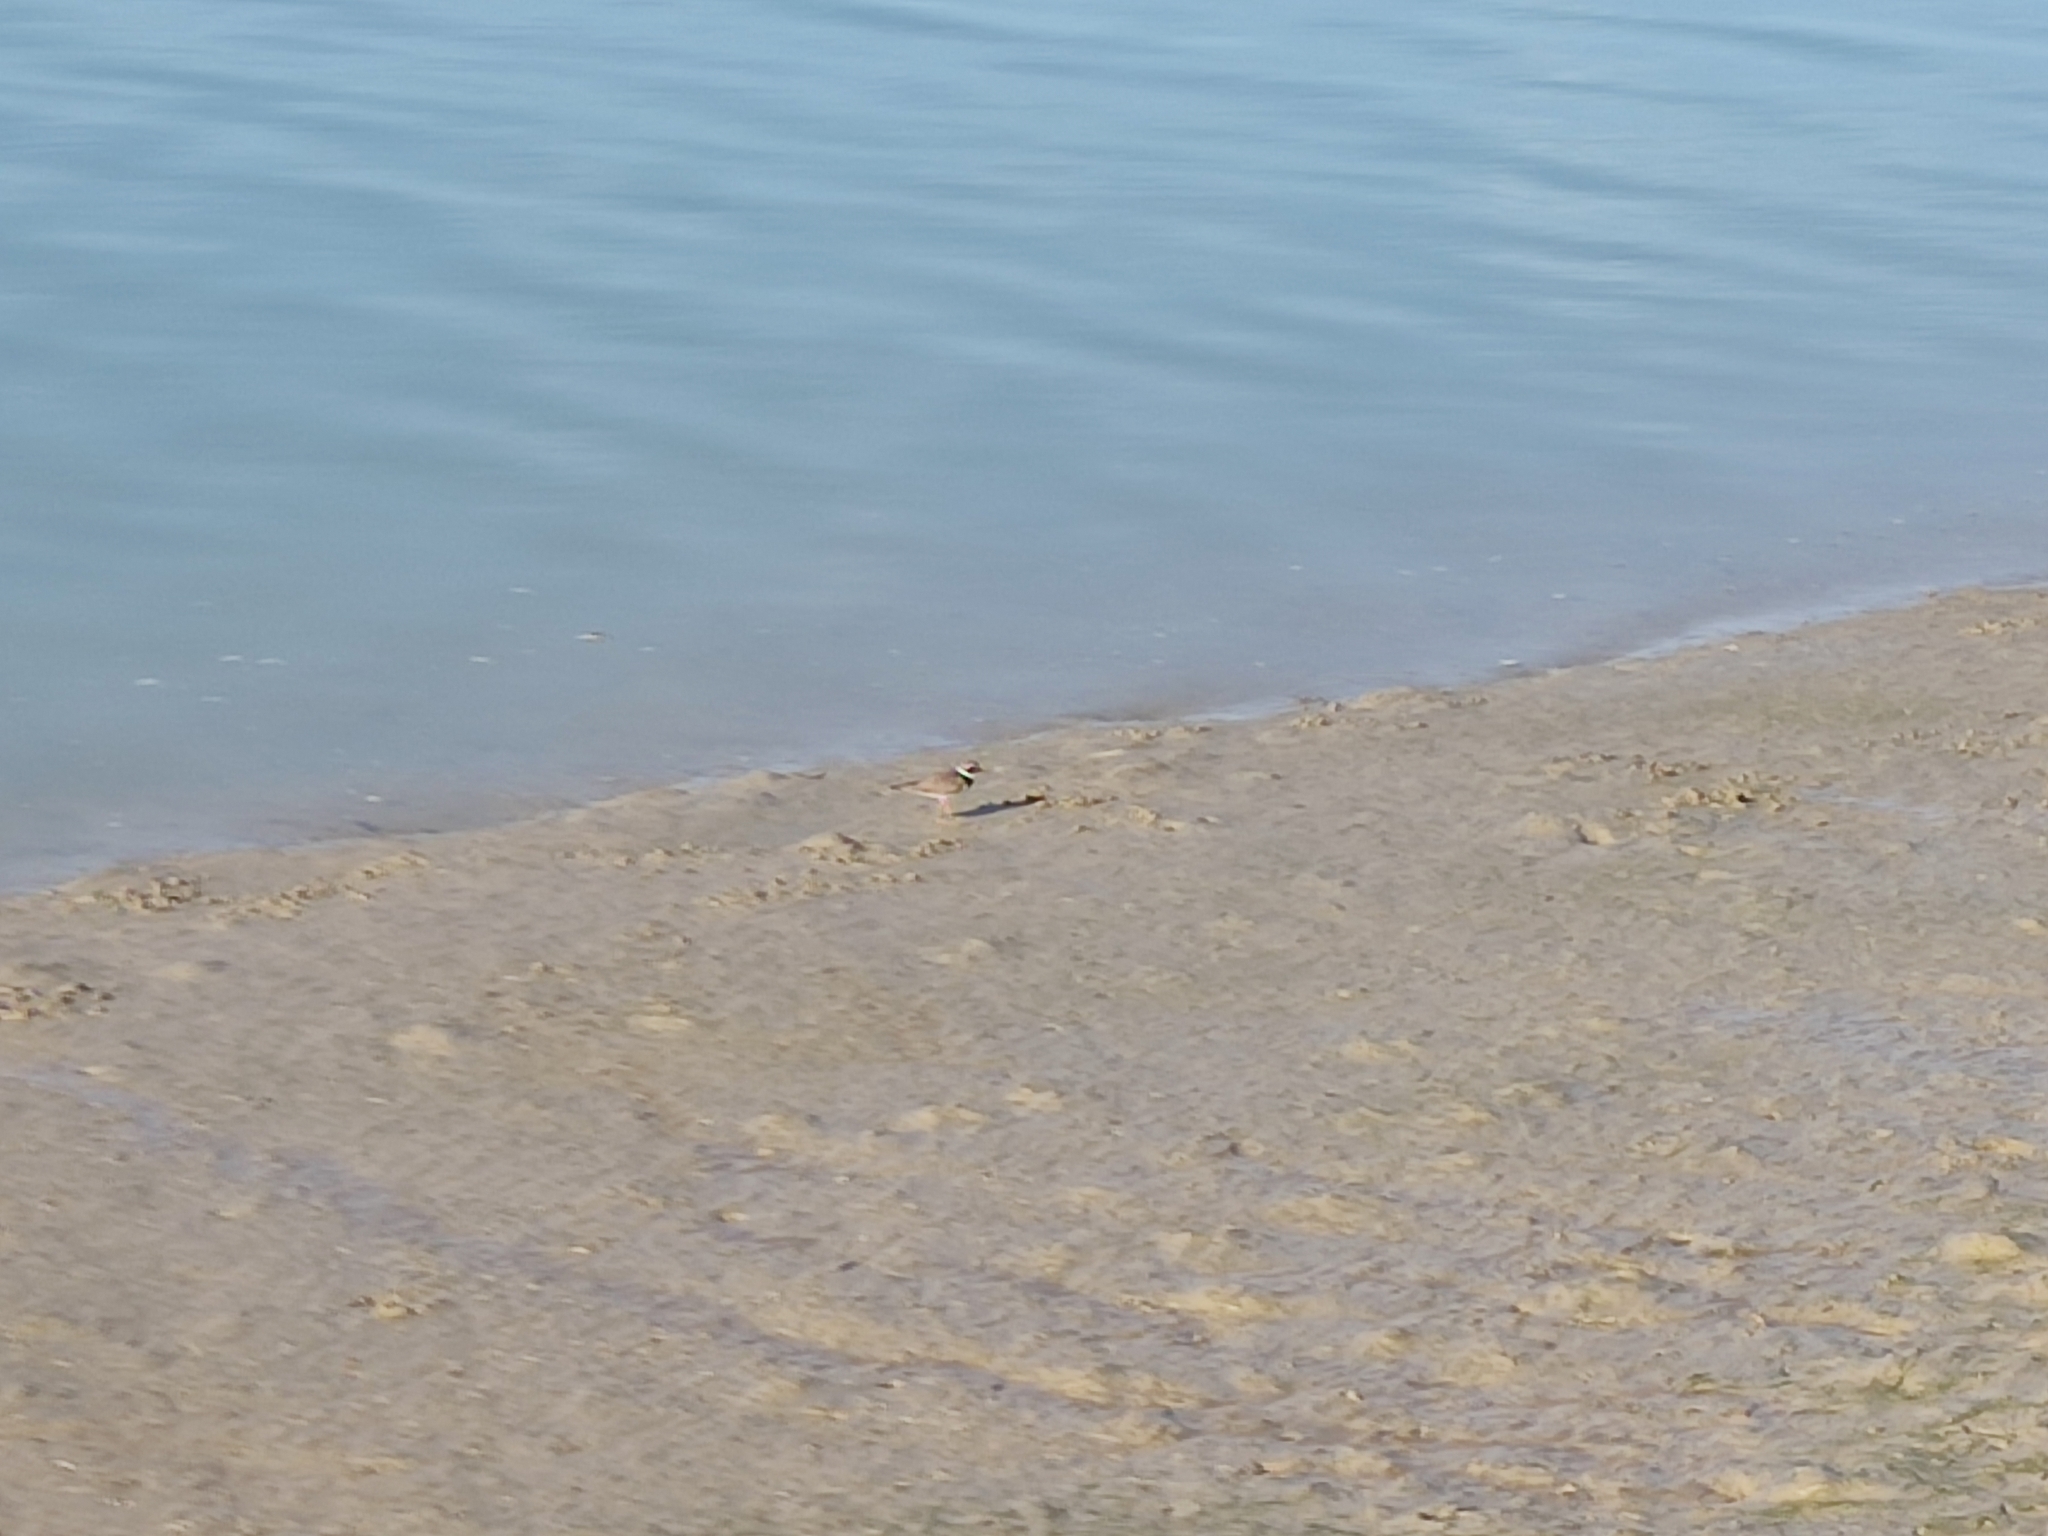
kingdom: Animalia
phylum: Chordata
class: Aves
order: Charadriiformes
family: Charadriidae
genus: Charadrius
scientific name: Charadrius hiaticula
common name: Common ringed plover
